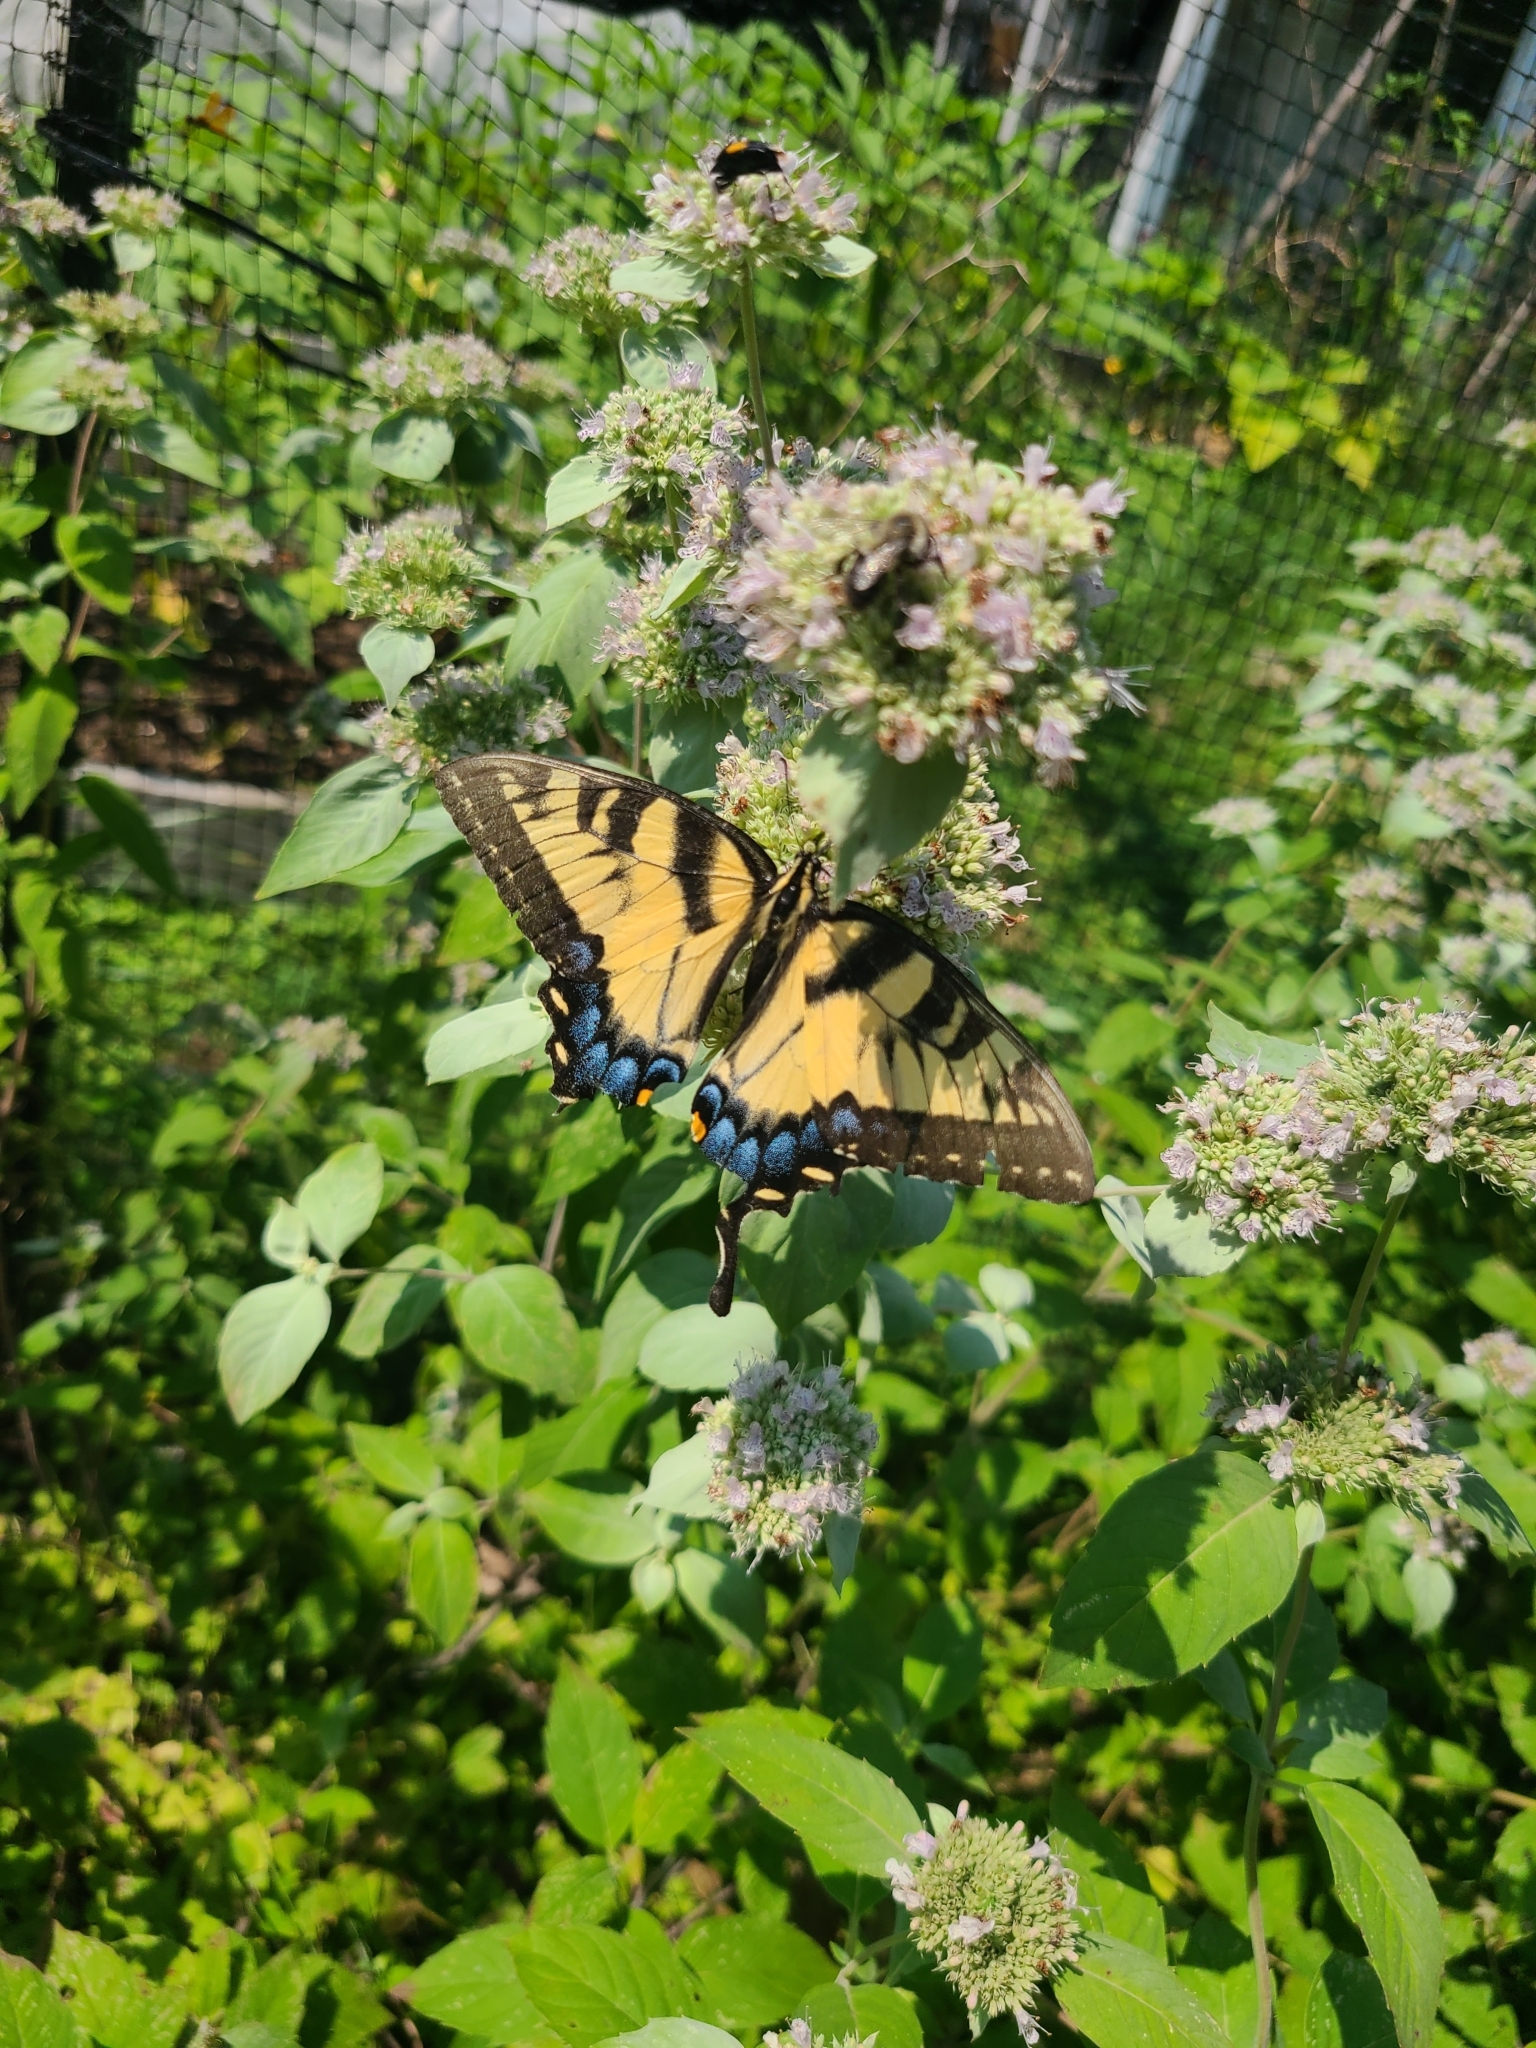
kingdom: Animalia
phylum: Arthropoda
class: Insecta
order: Lepidoptera
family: Papilionidae
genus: Papilio
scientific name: Papilio glaucus
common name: Tiger swallowtail
